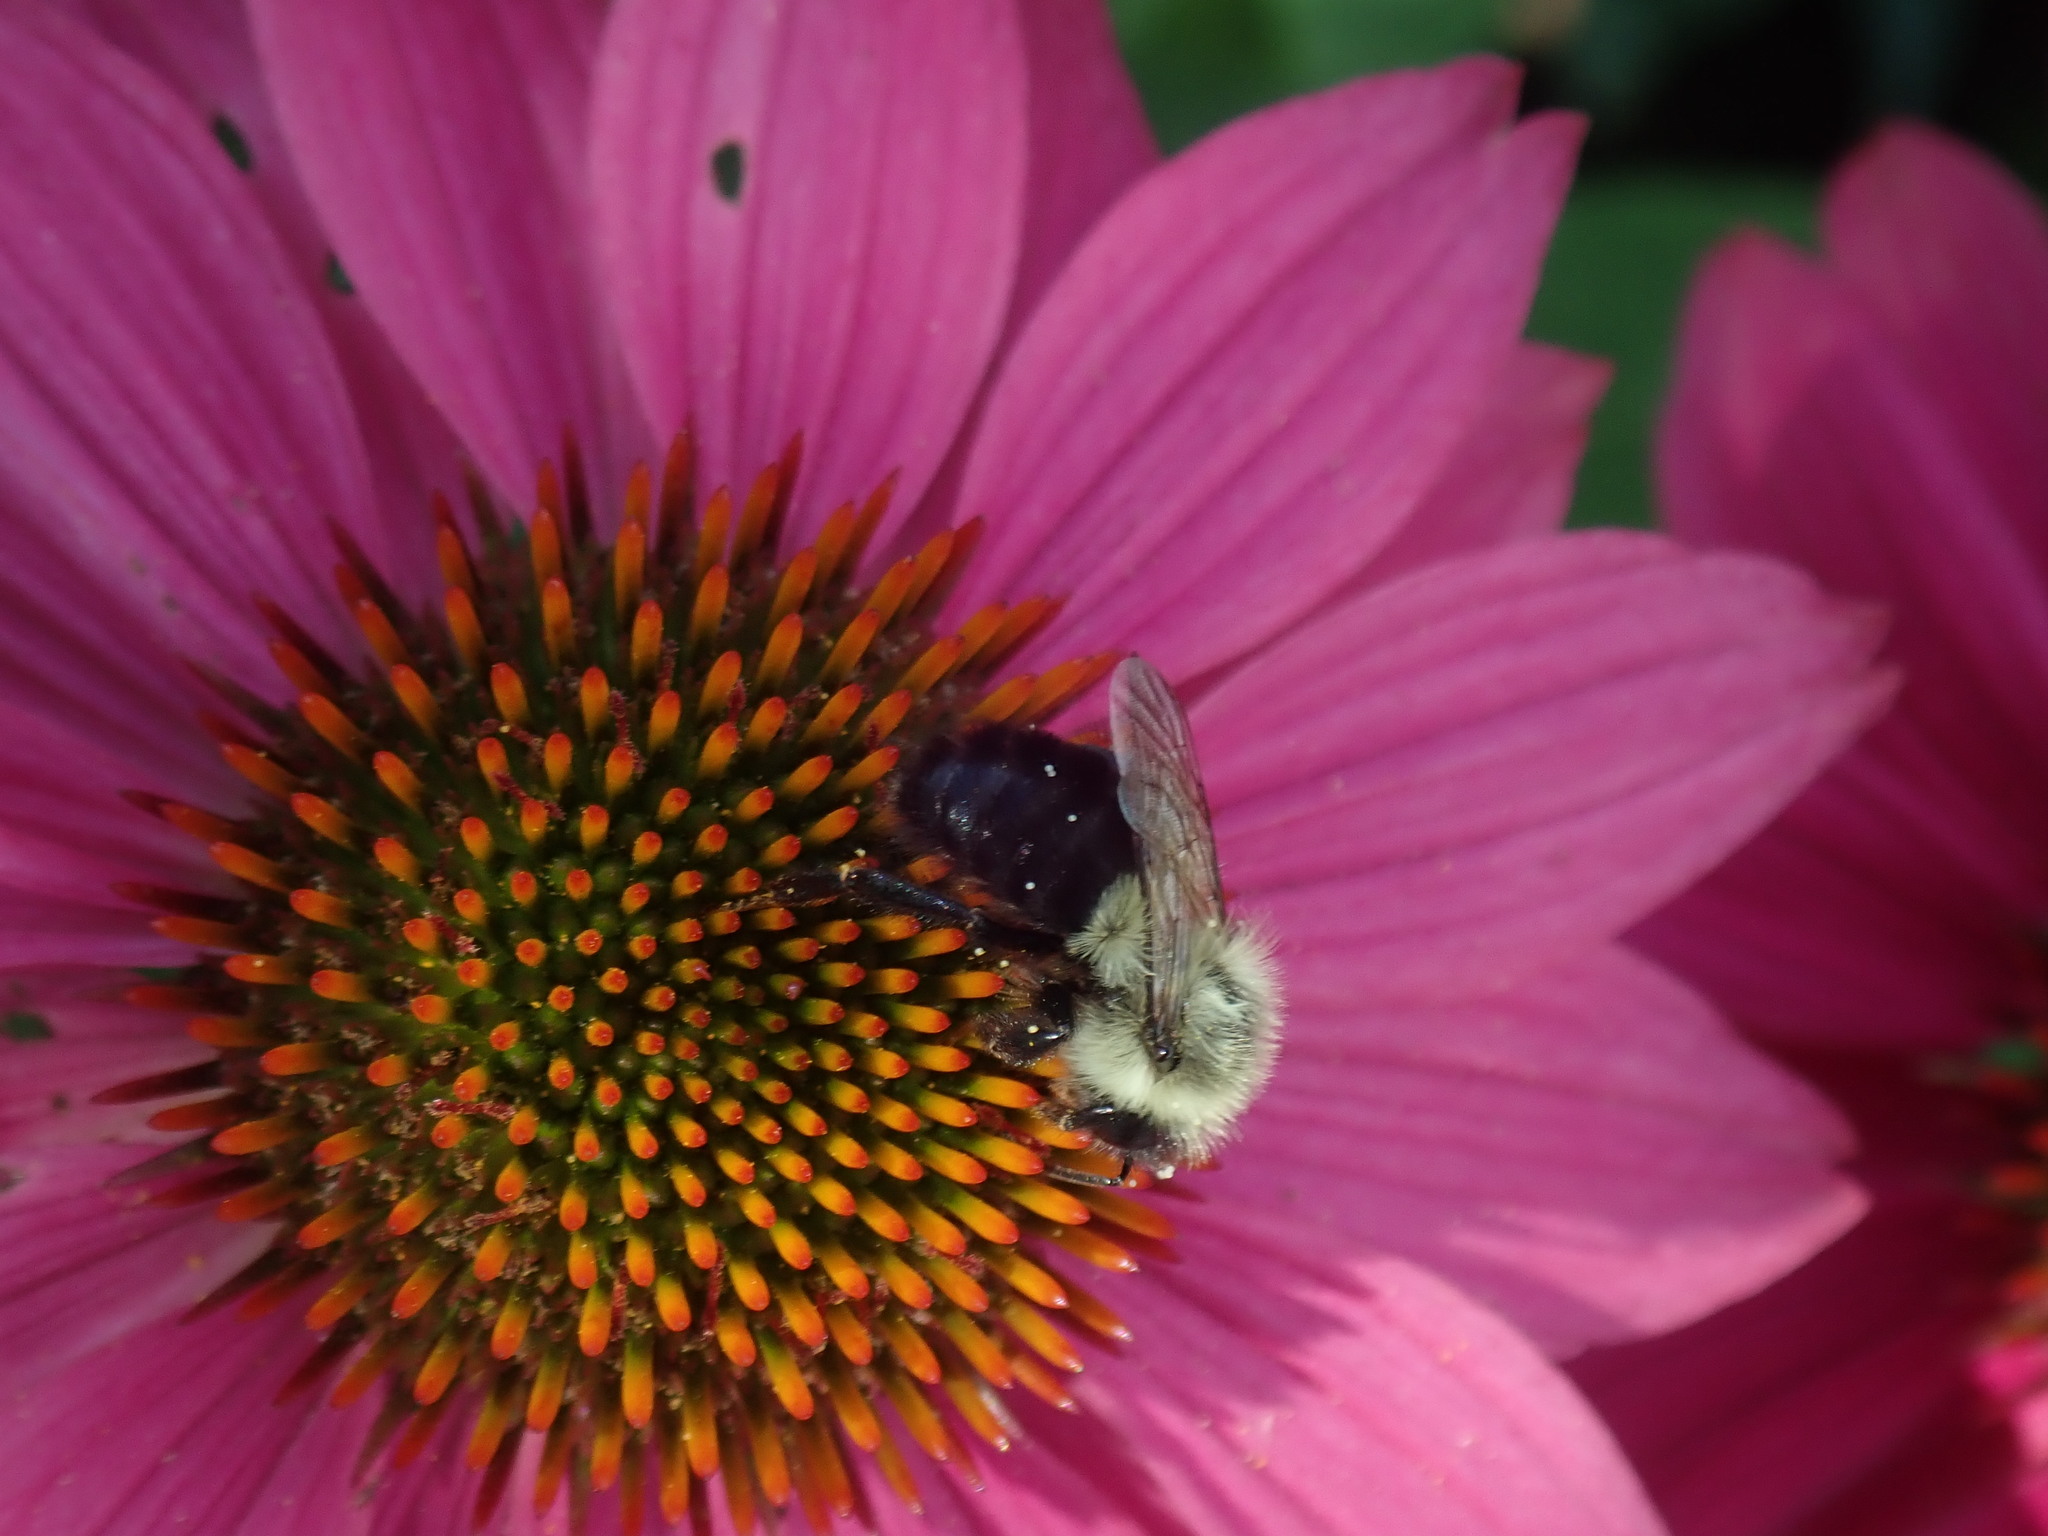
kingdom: Animalia
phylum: Arthropoda
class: Insecta
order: Hymenoptera
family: Apidae
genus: Bombus
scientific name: Bombus impatiens
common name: Common eastern bumble bee
